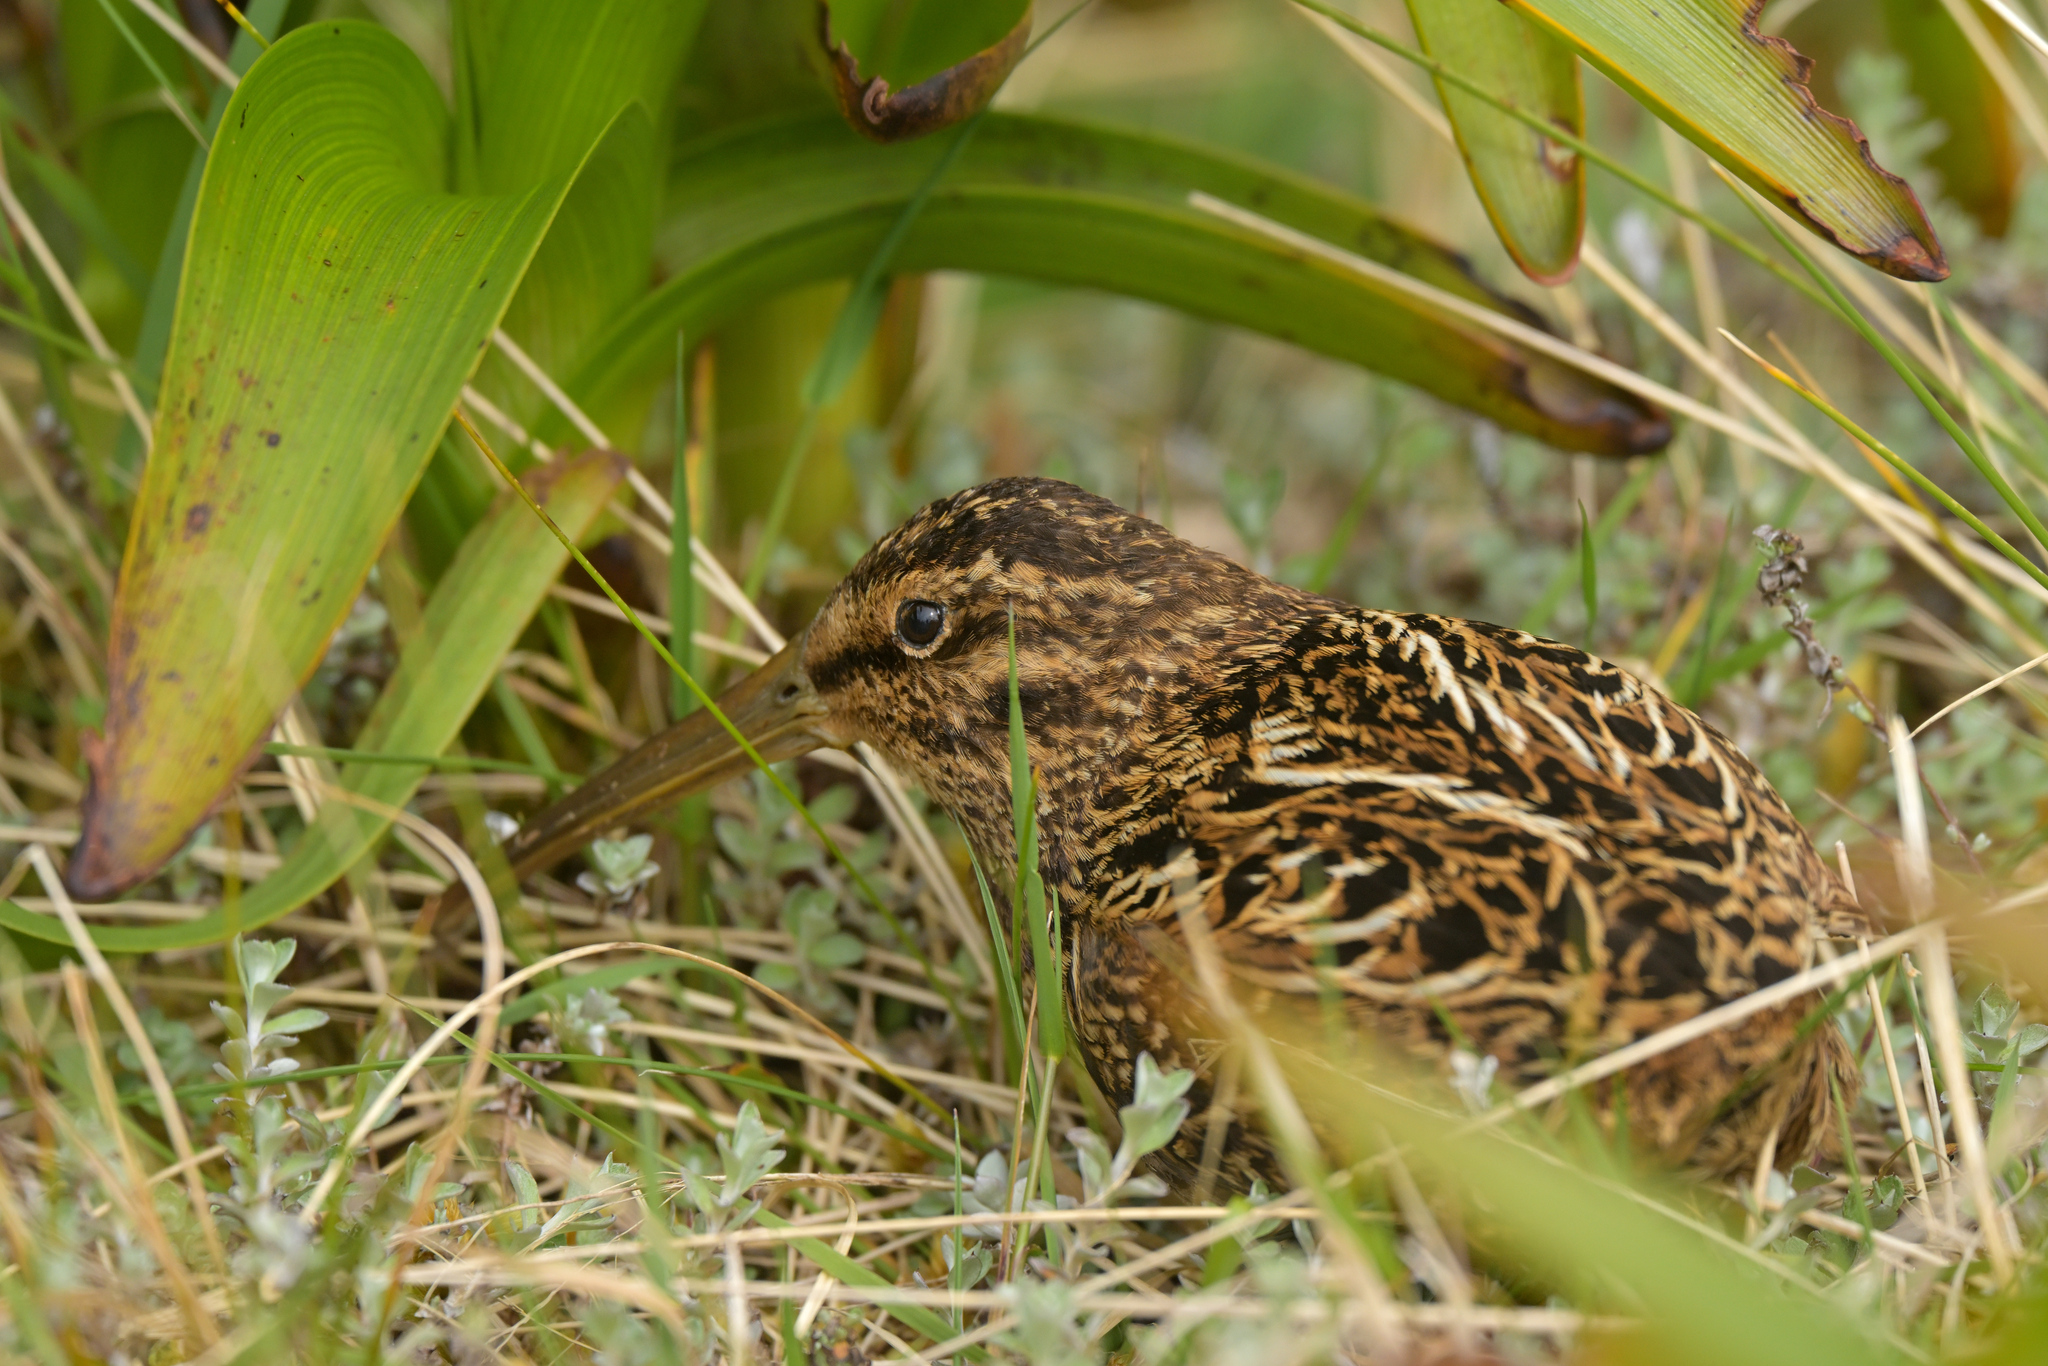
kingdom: Animalia
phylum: Chordata
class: Aves
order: Charadriiformes
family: Scolopacidae
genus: Coenocorypha
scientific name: Coenocorypha aucklandica
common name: Subantarctic snipe
